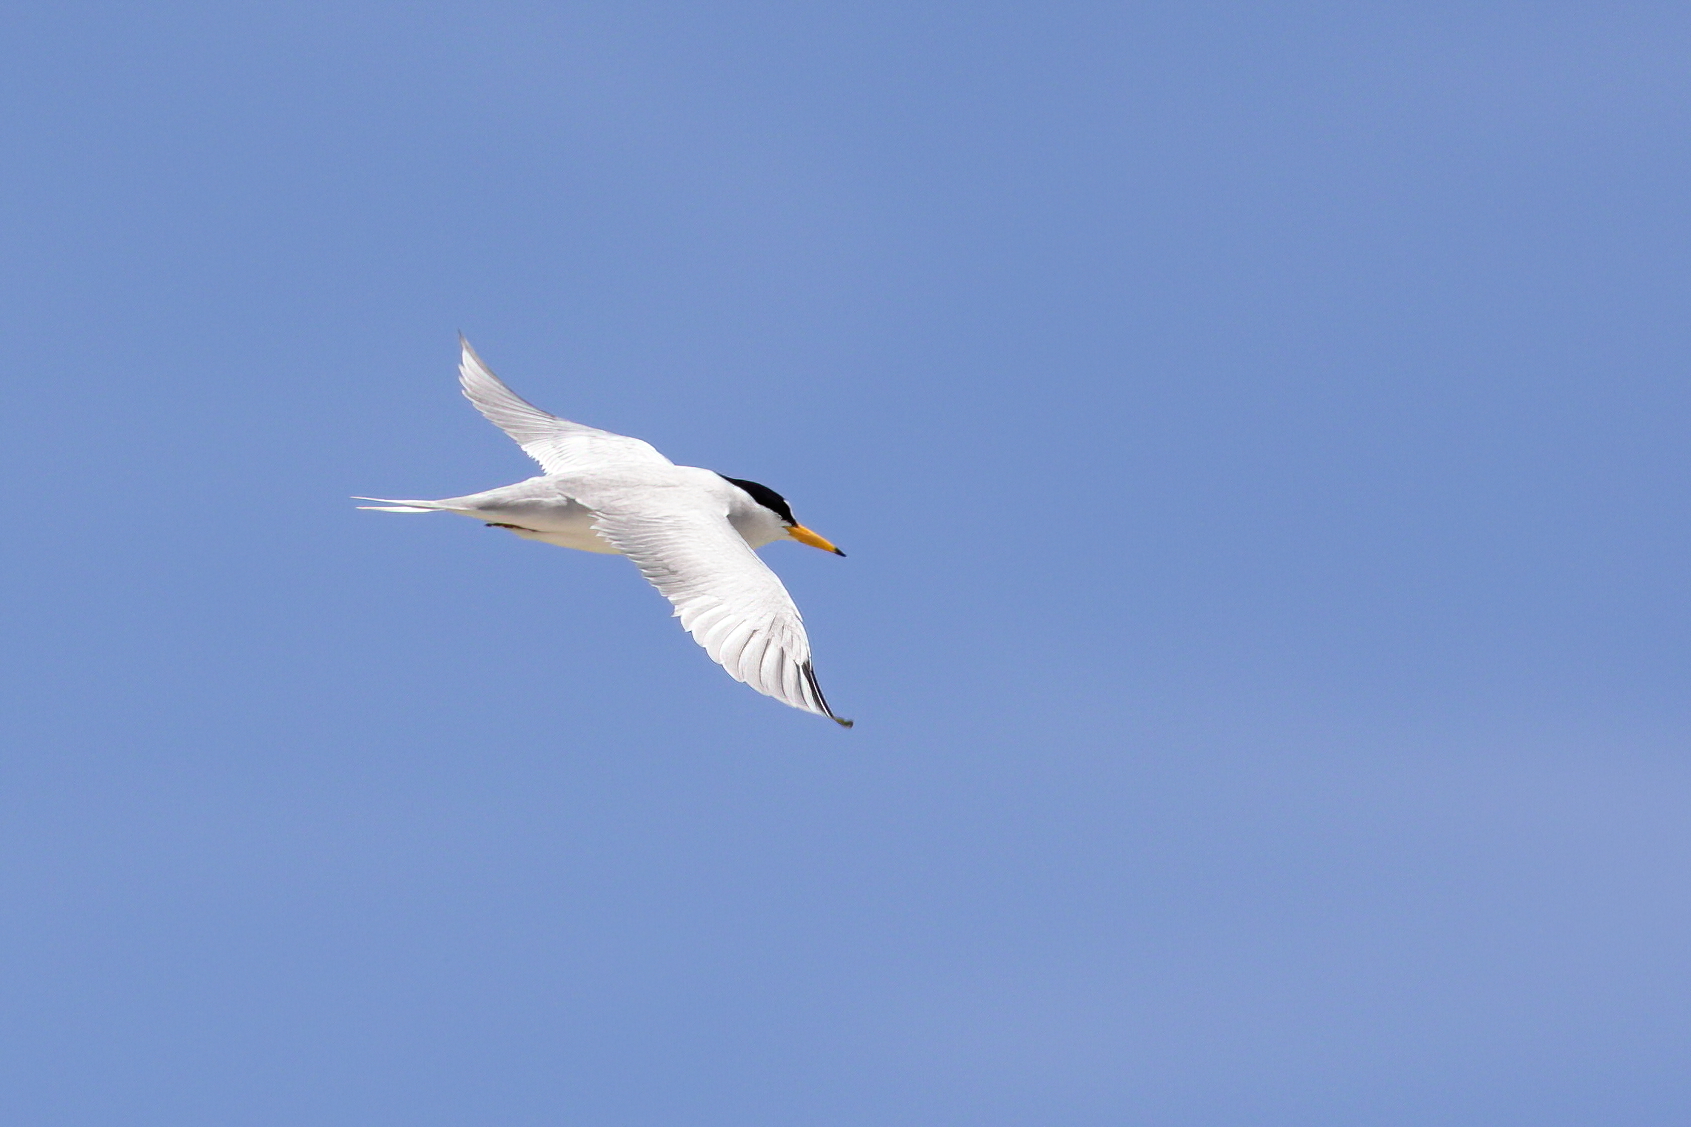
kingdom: Animalia
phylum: Chordata
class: Aves
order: Charadriiformes
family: Laridae
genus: Sternula
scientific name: Sternula antillarum
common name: Least tern
